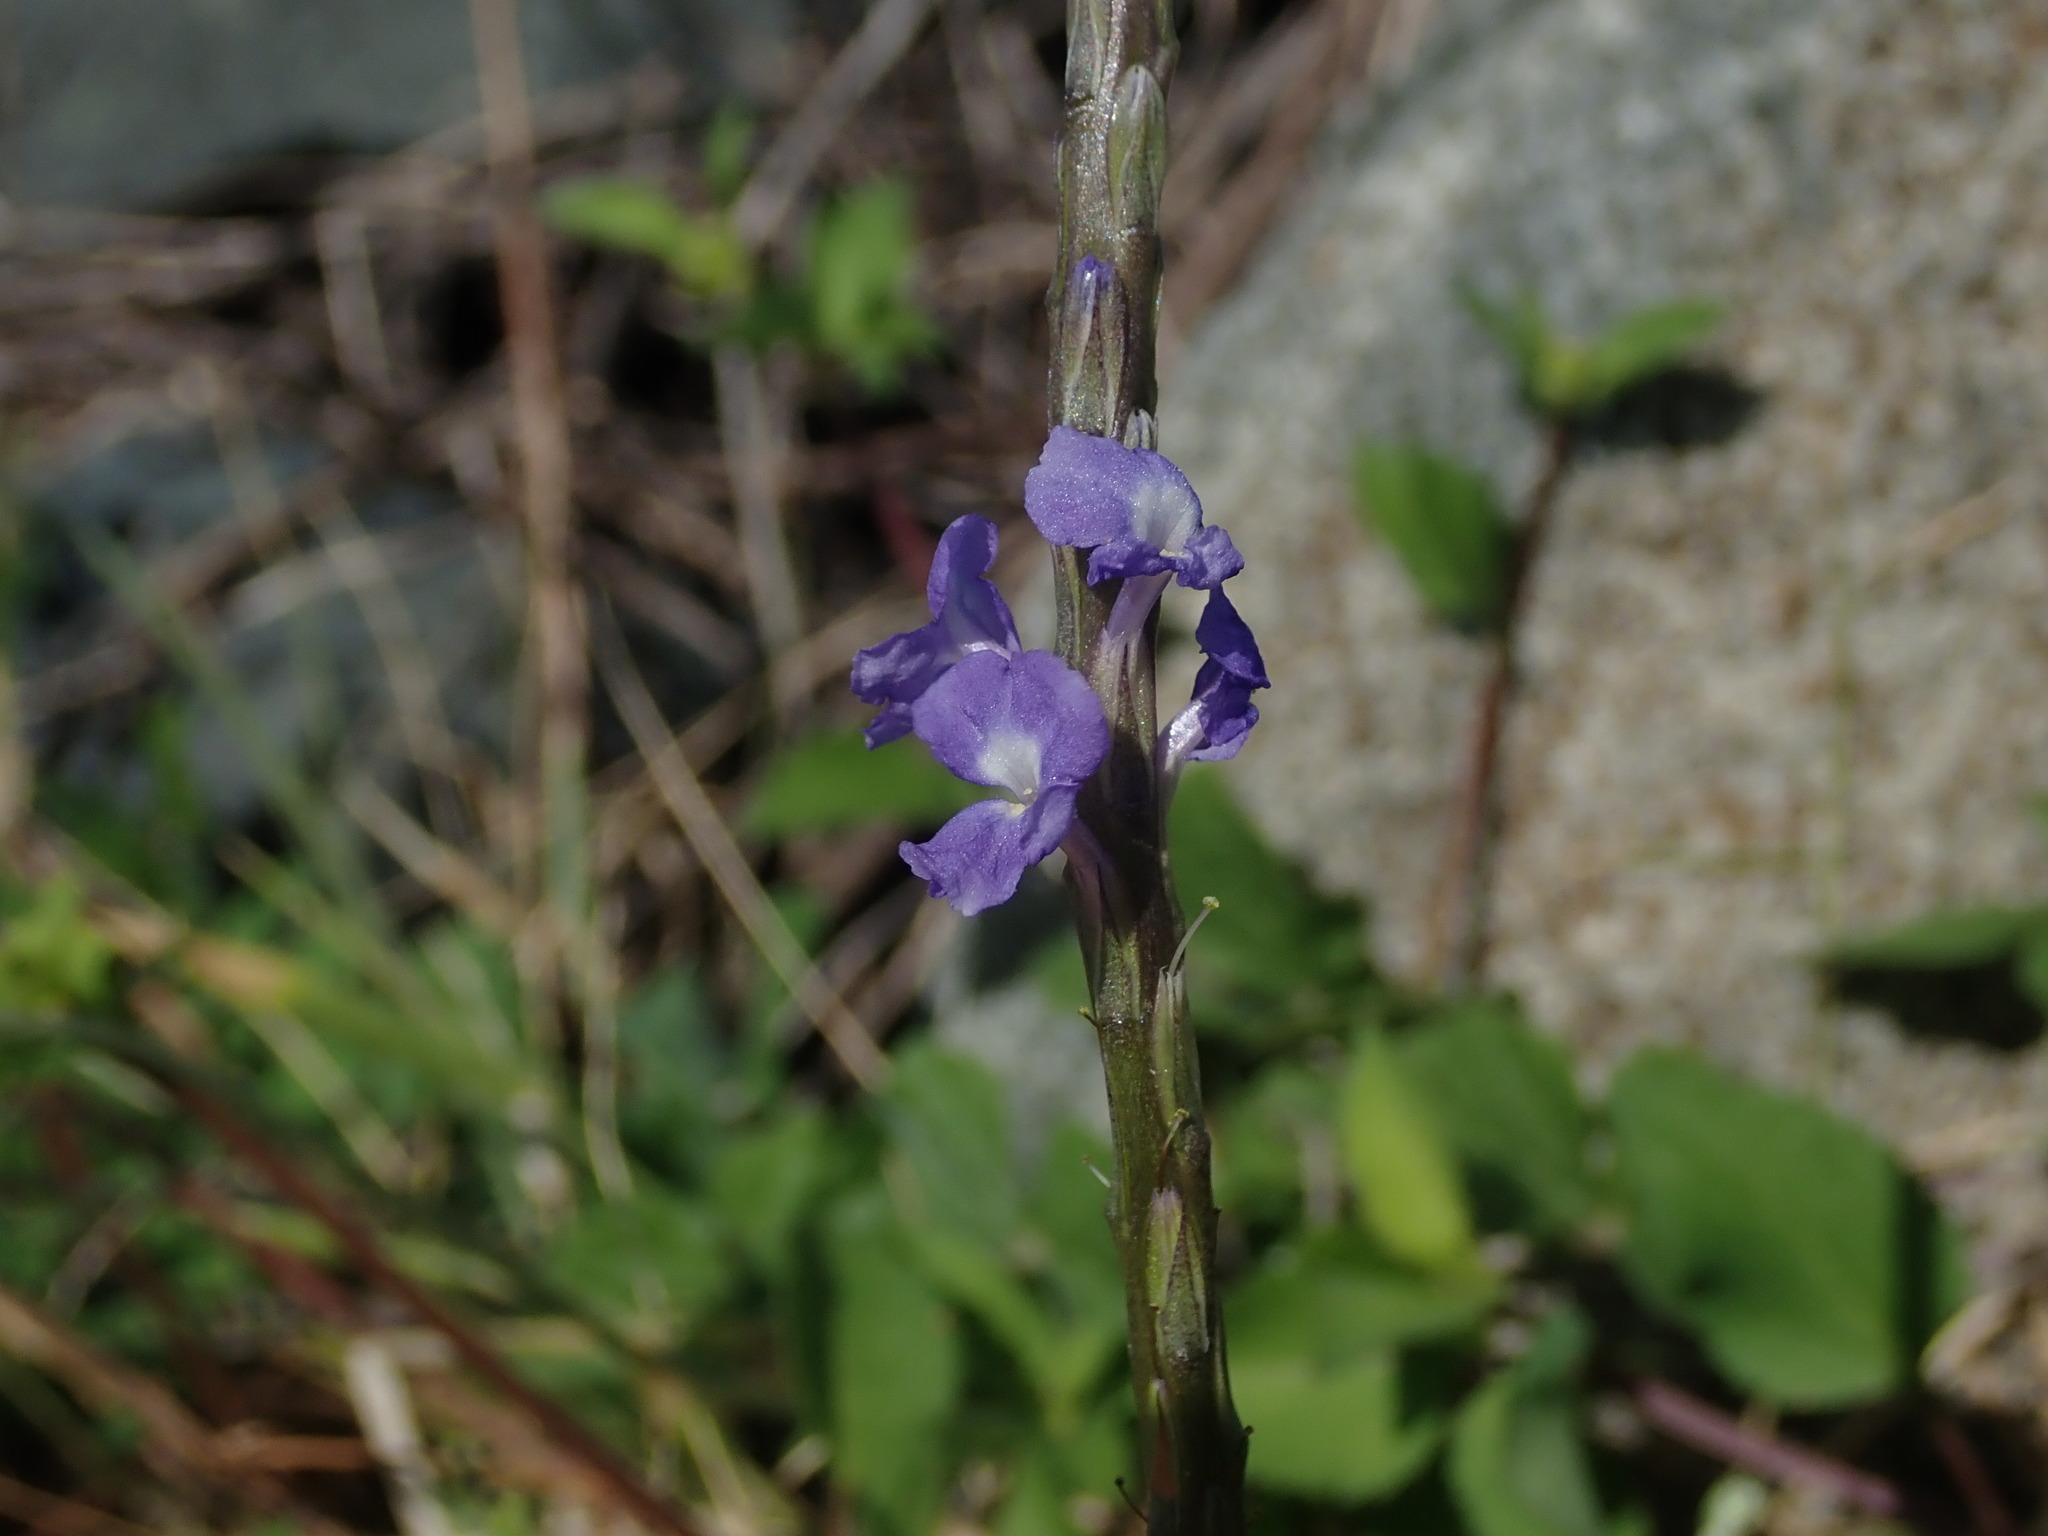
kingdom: Plantae
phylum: Tracheophyta
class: Magnoliopsida
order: Lamiales
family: Verbenaceae
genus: Stachytarpheta
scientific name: Stachytarpheta jamaicensis
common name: Light-blue snakeweed
